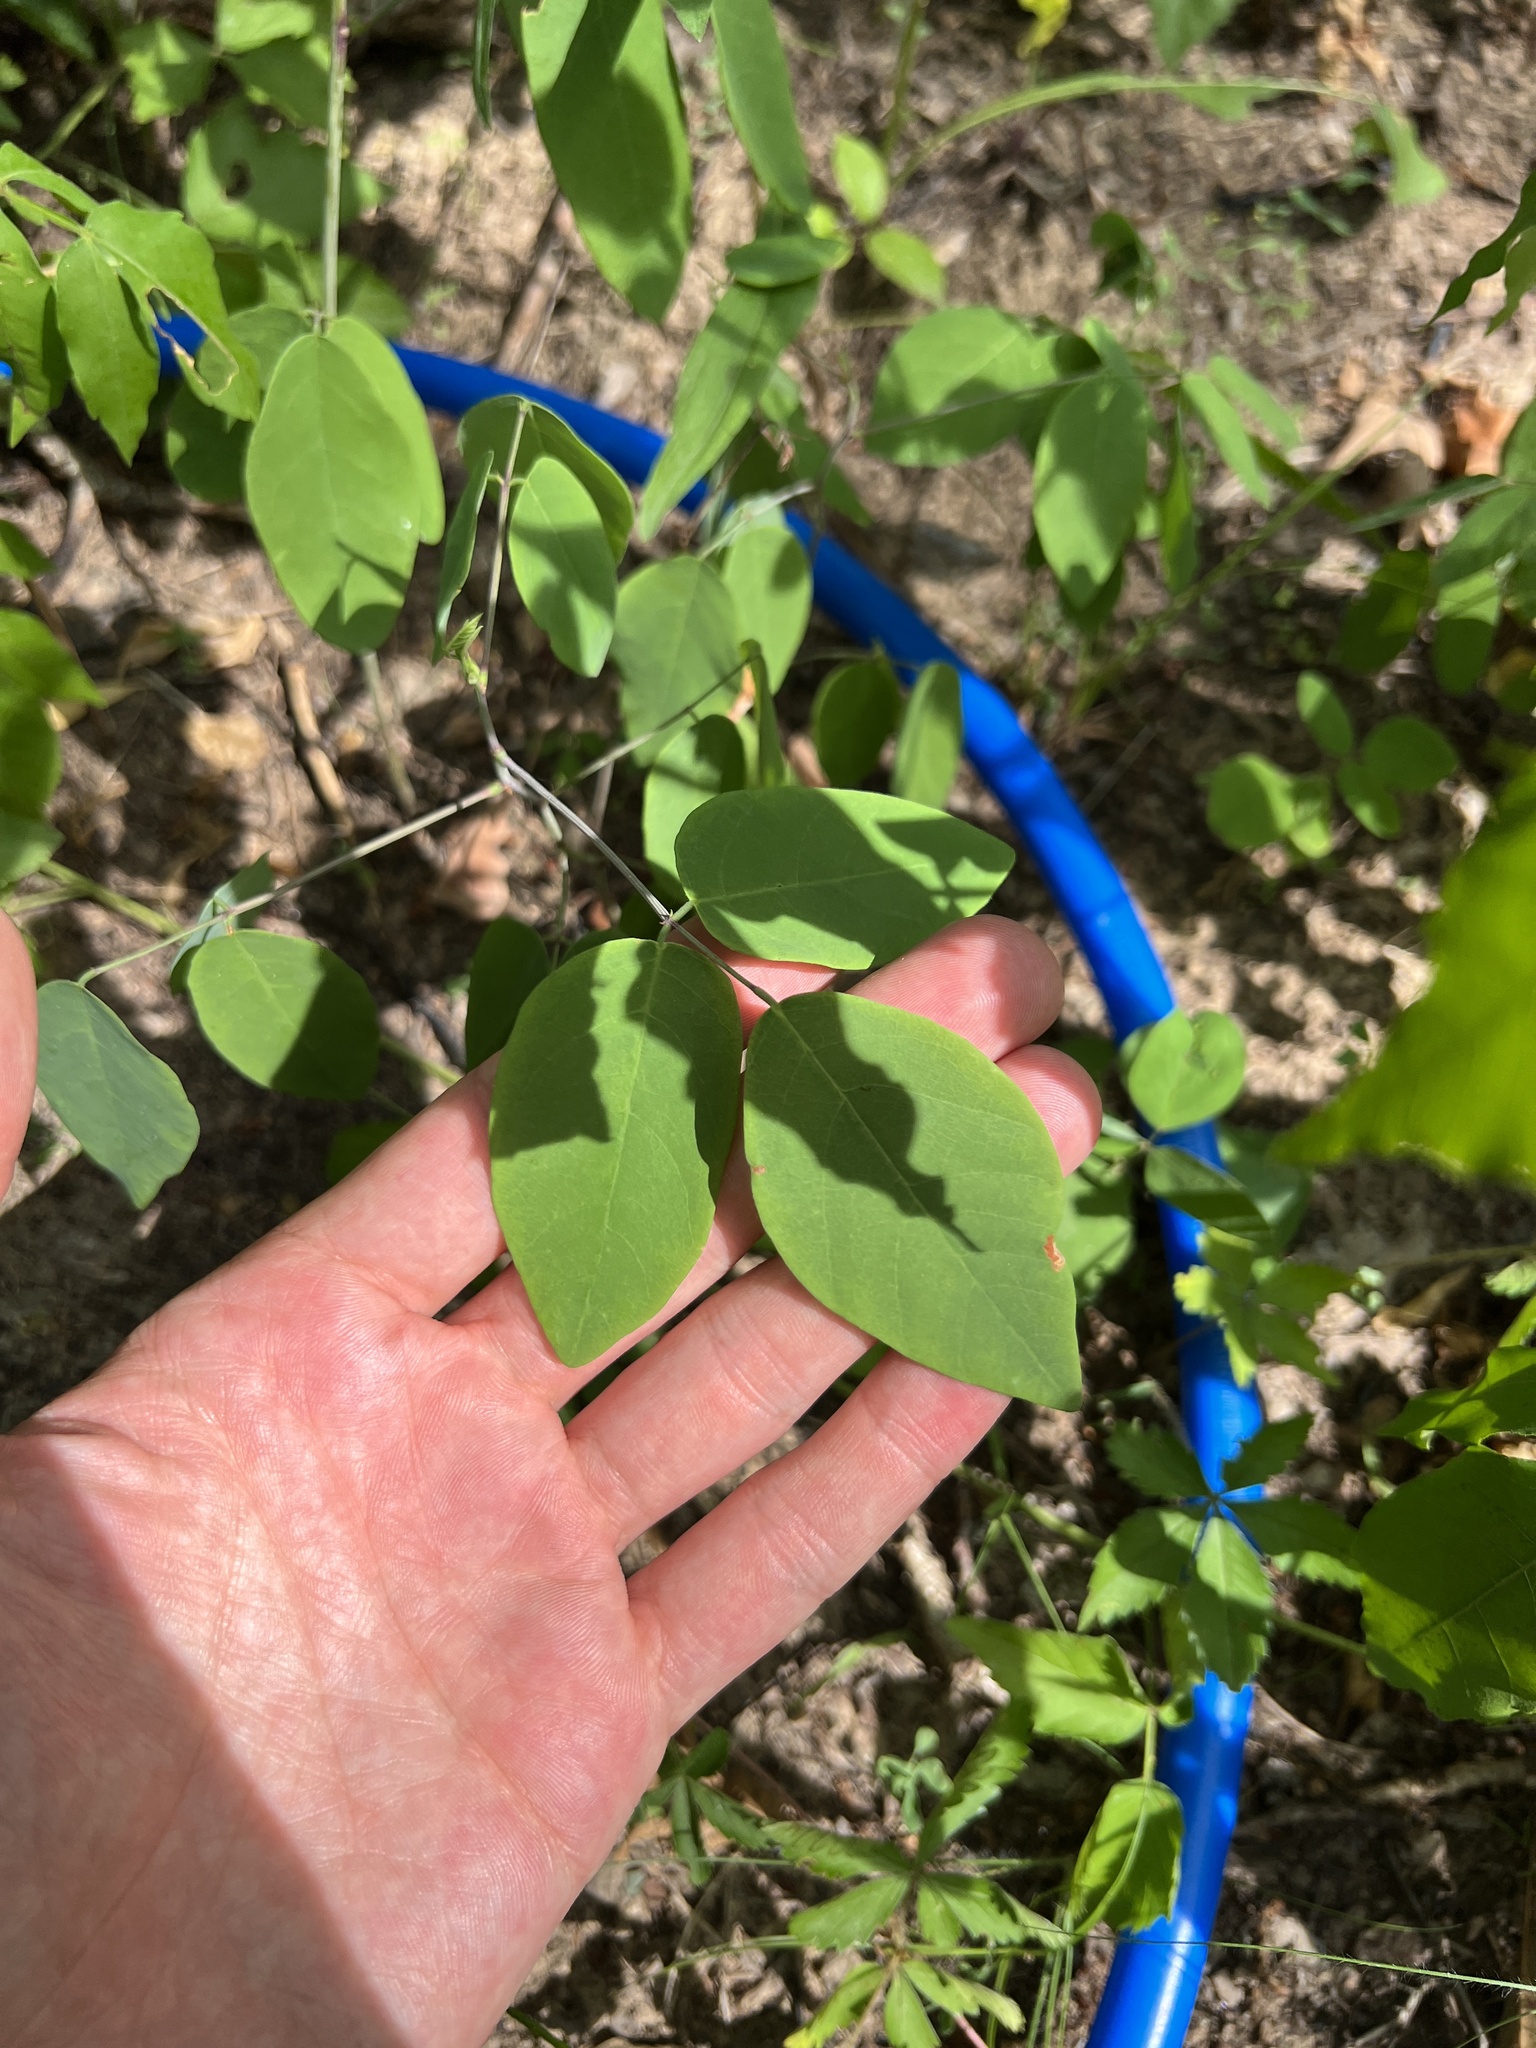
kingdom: Plantae
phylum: Tracheophyta
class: Magnoliopsida
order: Fabales
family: Fabaceae
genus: Desmodium
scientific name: Desmodium laevigatum
